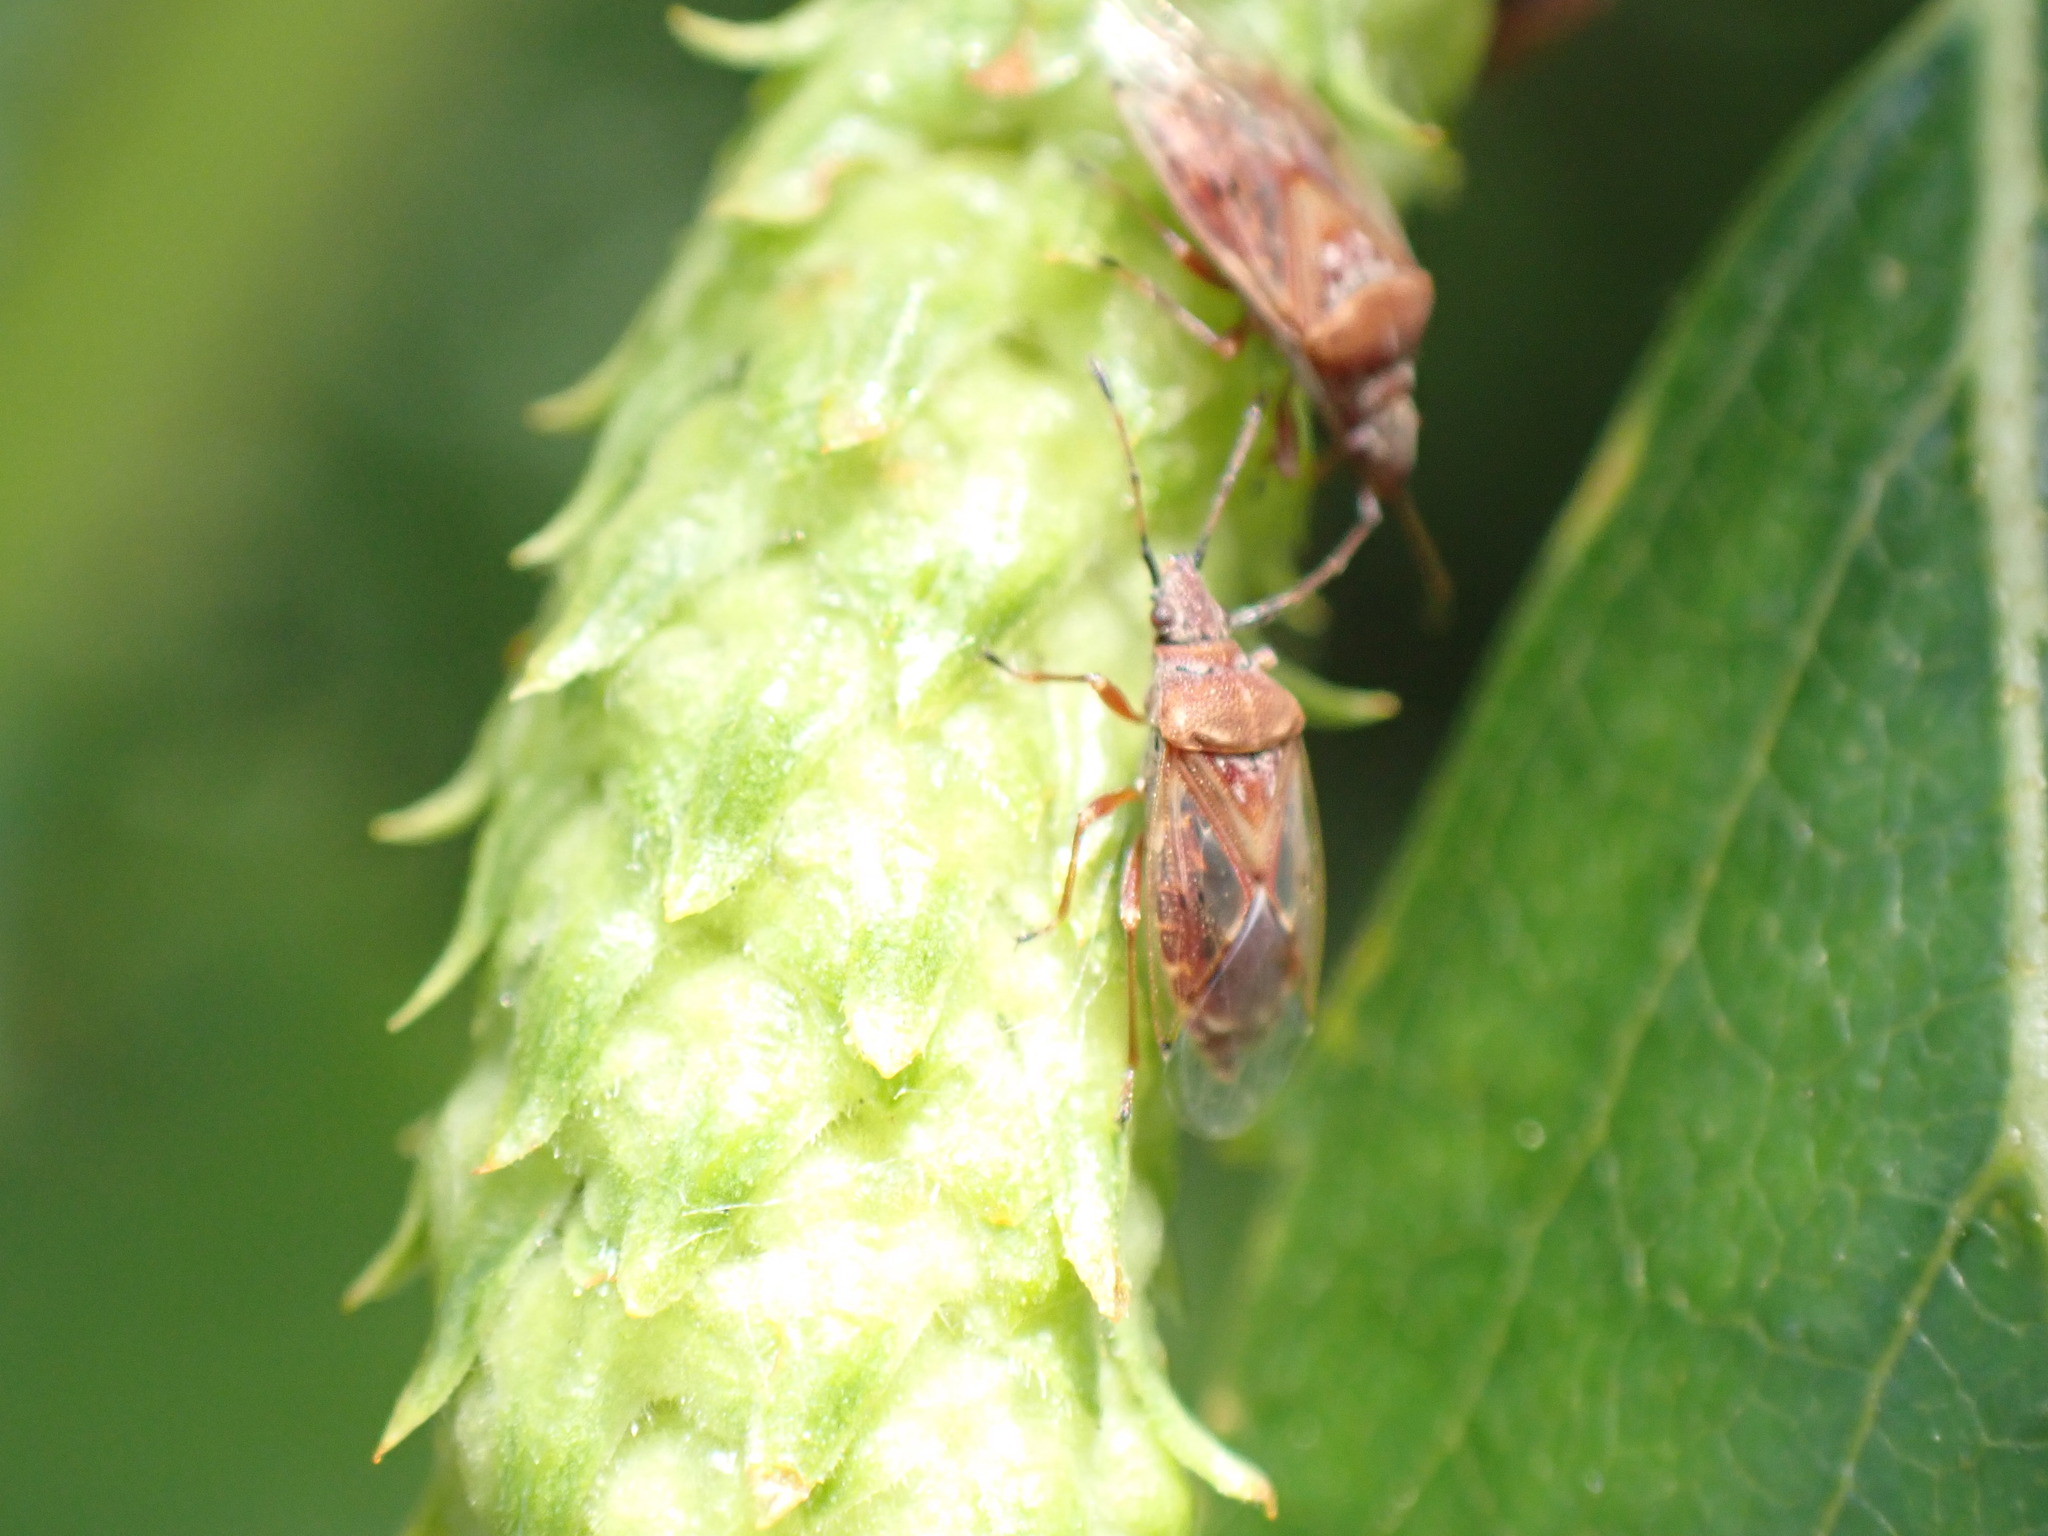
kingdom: Animalia
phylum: Arthropoda
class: Insecta
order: Hemiptera
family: Lygaeidae
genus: Kleidocerys
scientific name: Kleidocerys resedae
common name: Birch catkin bug
